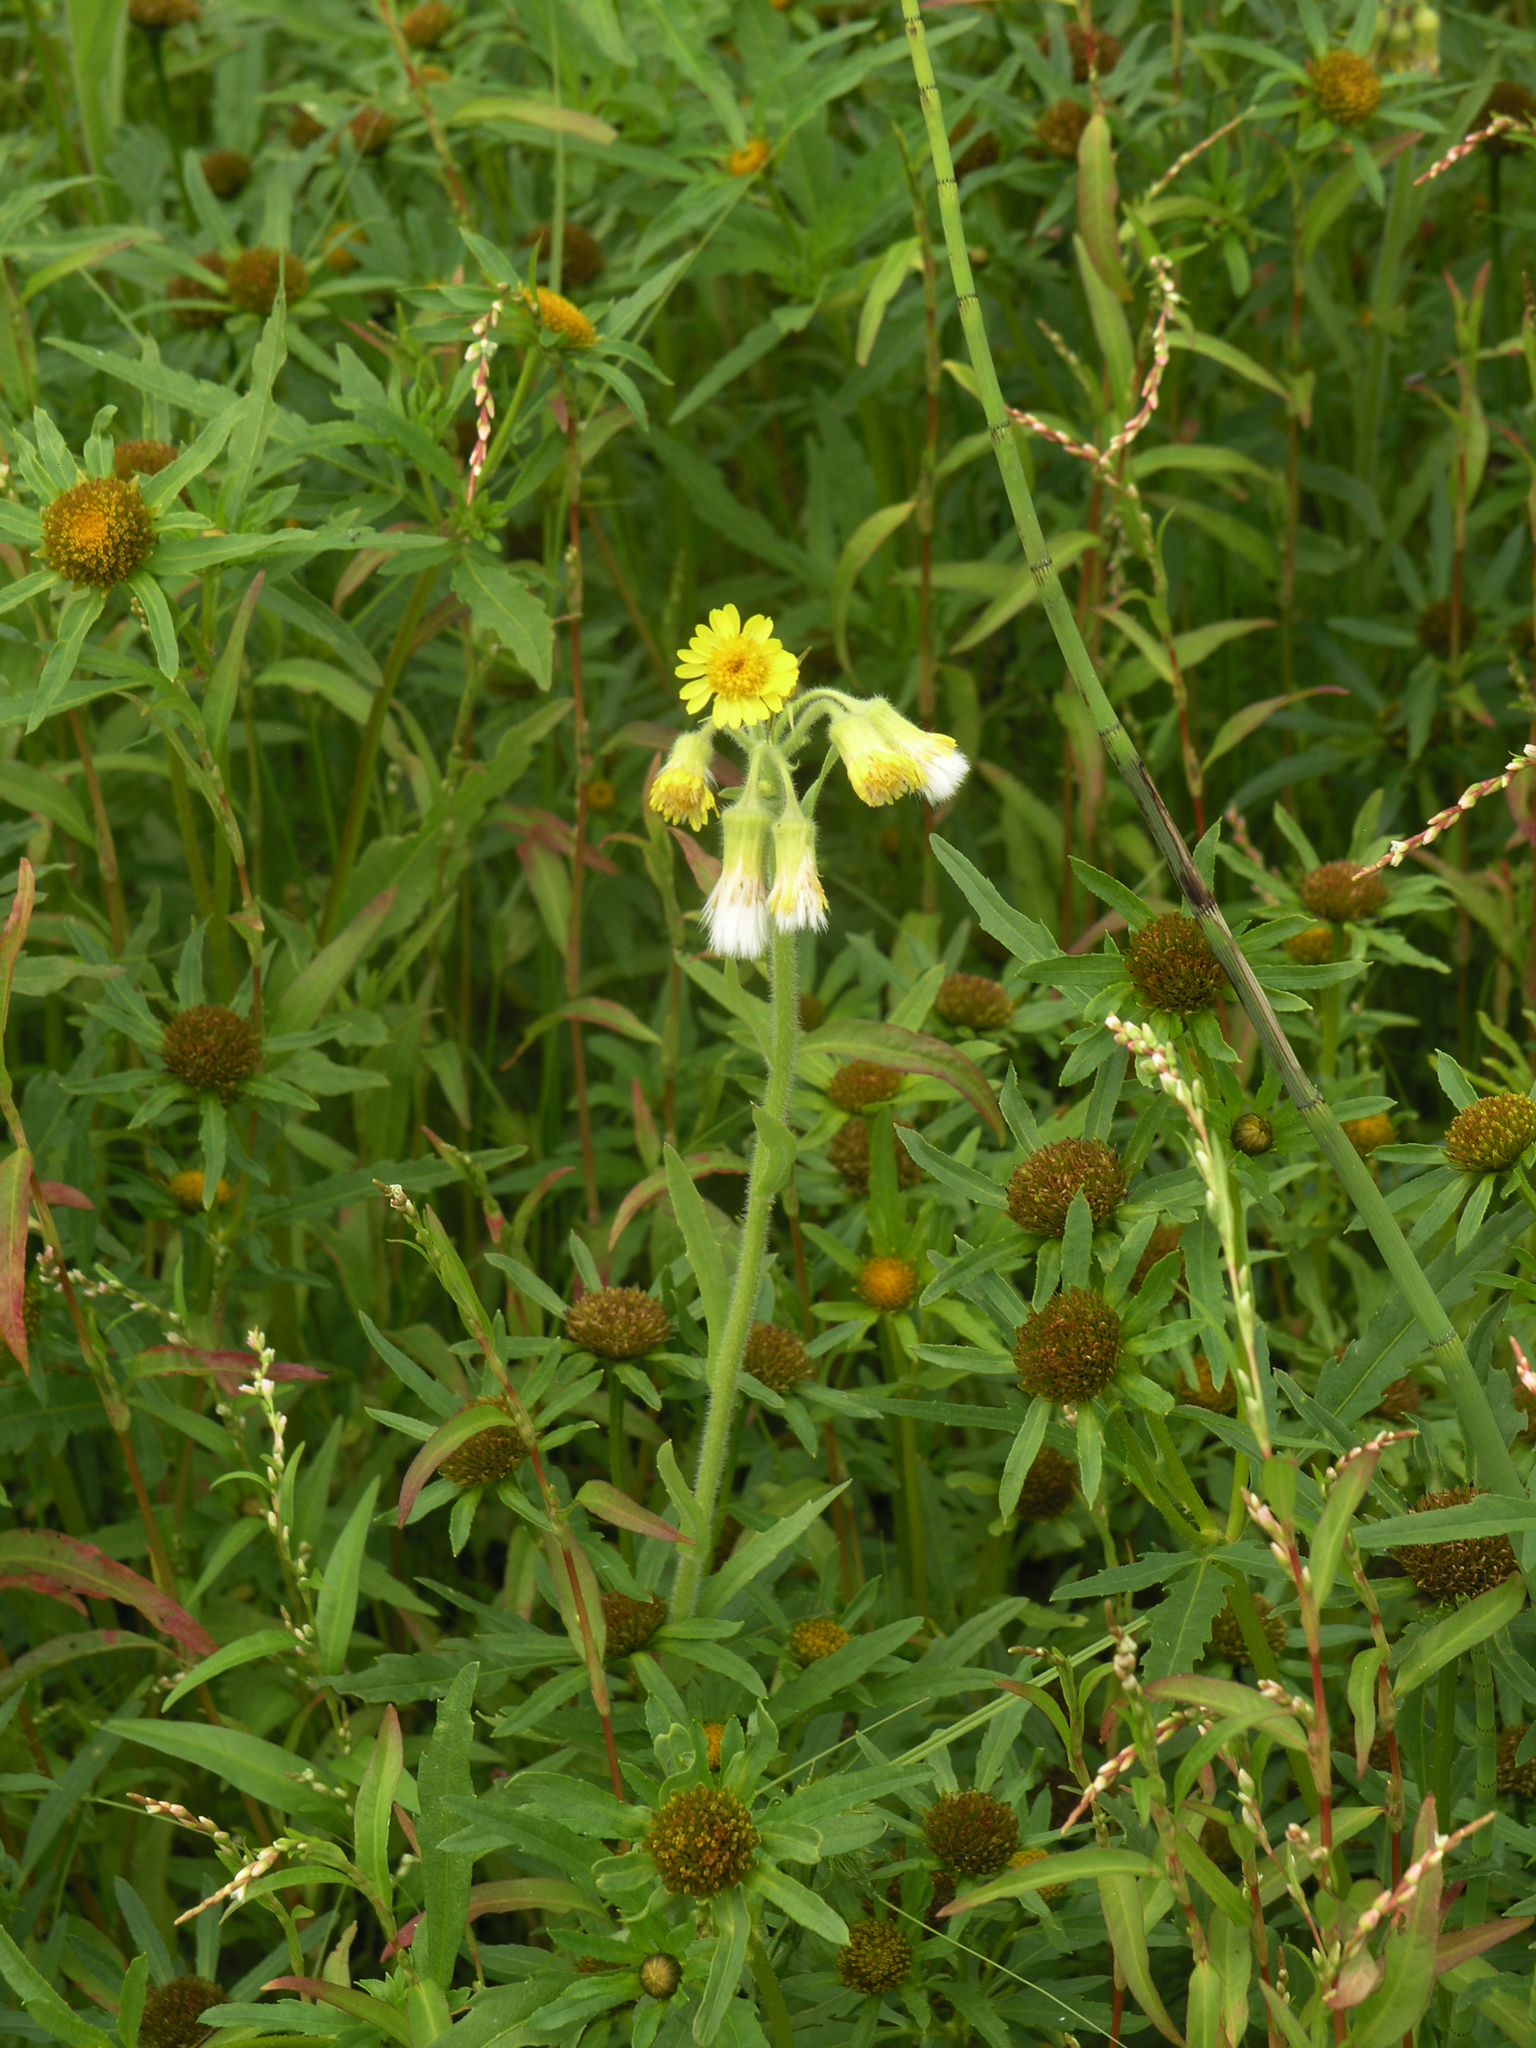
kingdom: Plantae
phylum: Tracheophyta
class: Magnoliopsida
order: Asterales
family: Asteraceae
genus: Tephroseris
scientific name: Tephroseris palustris
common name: Marsh fleawort
